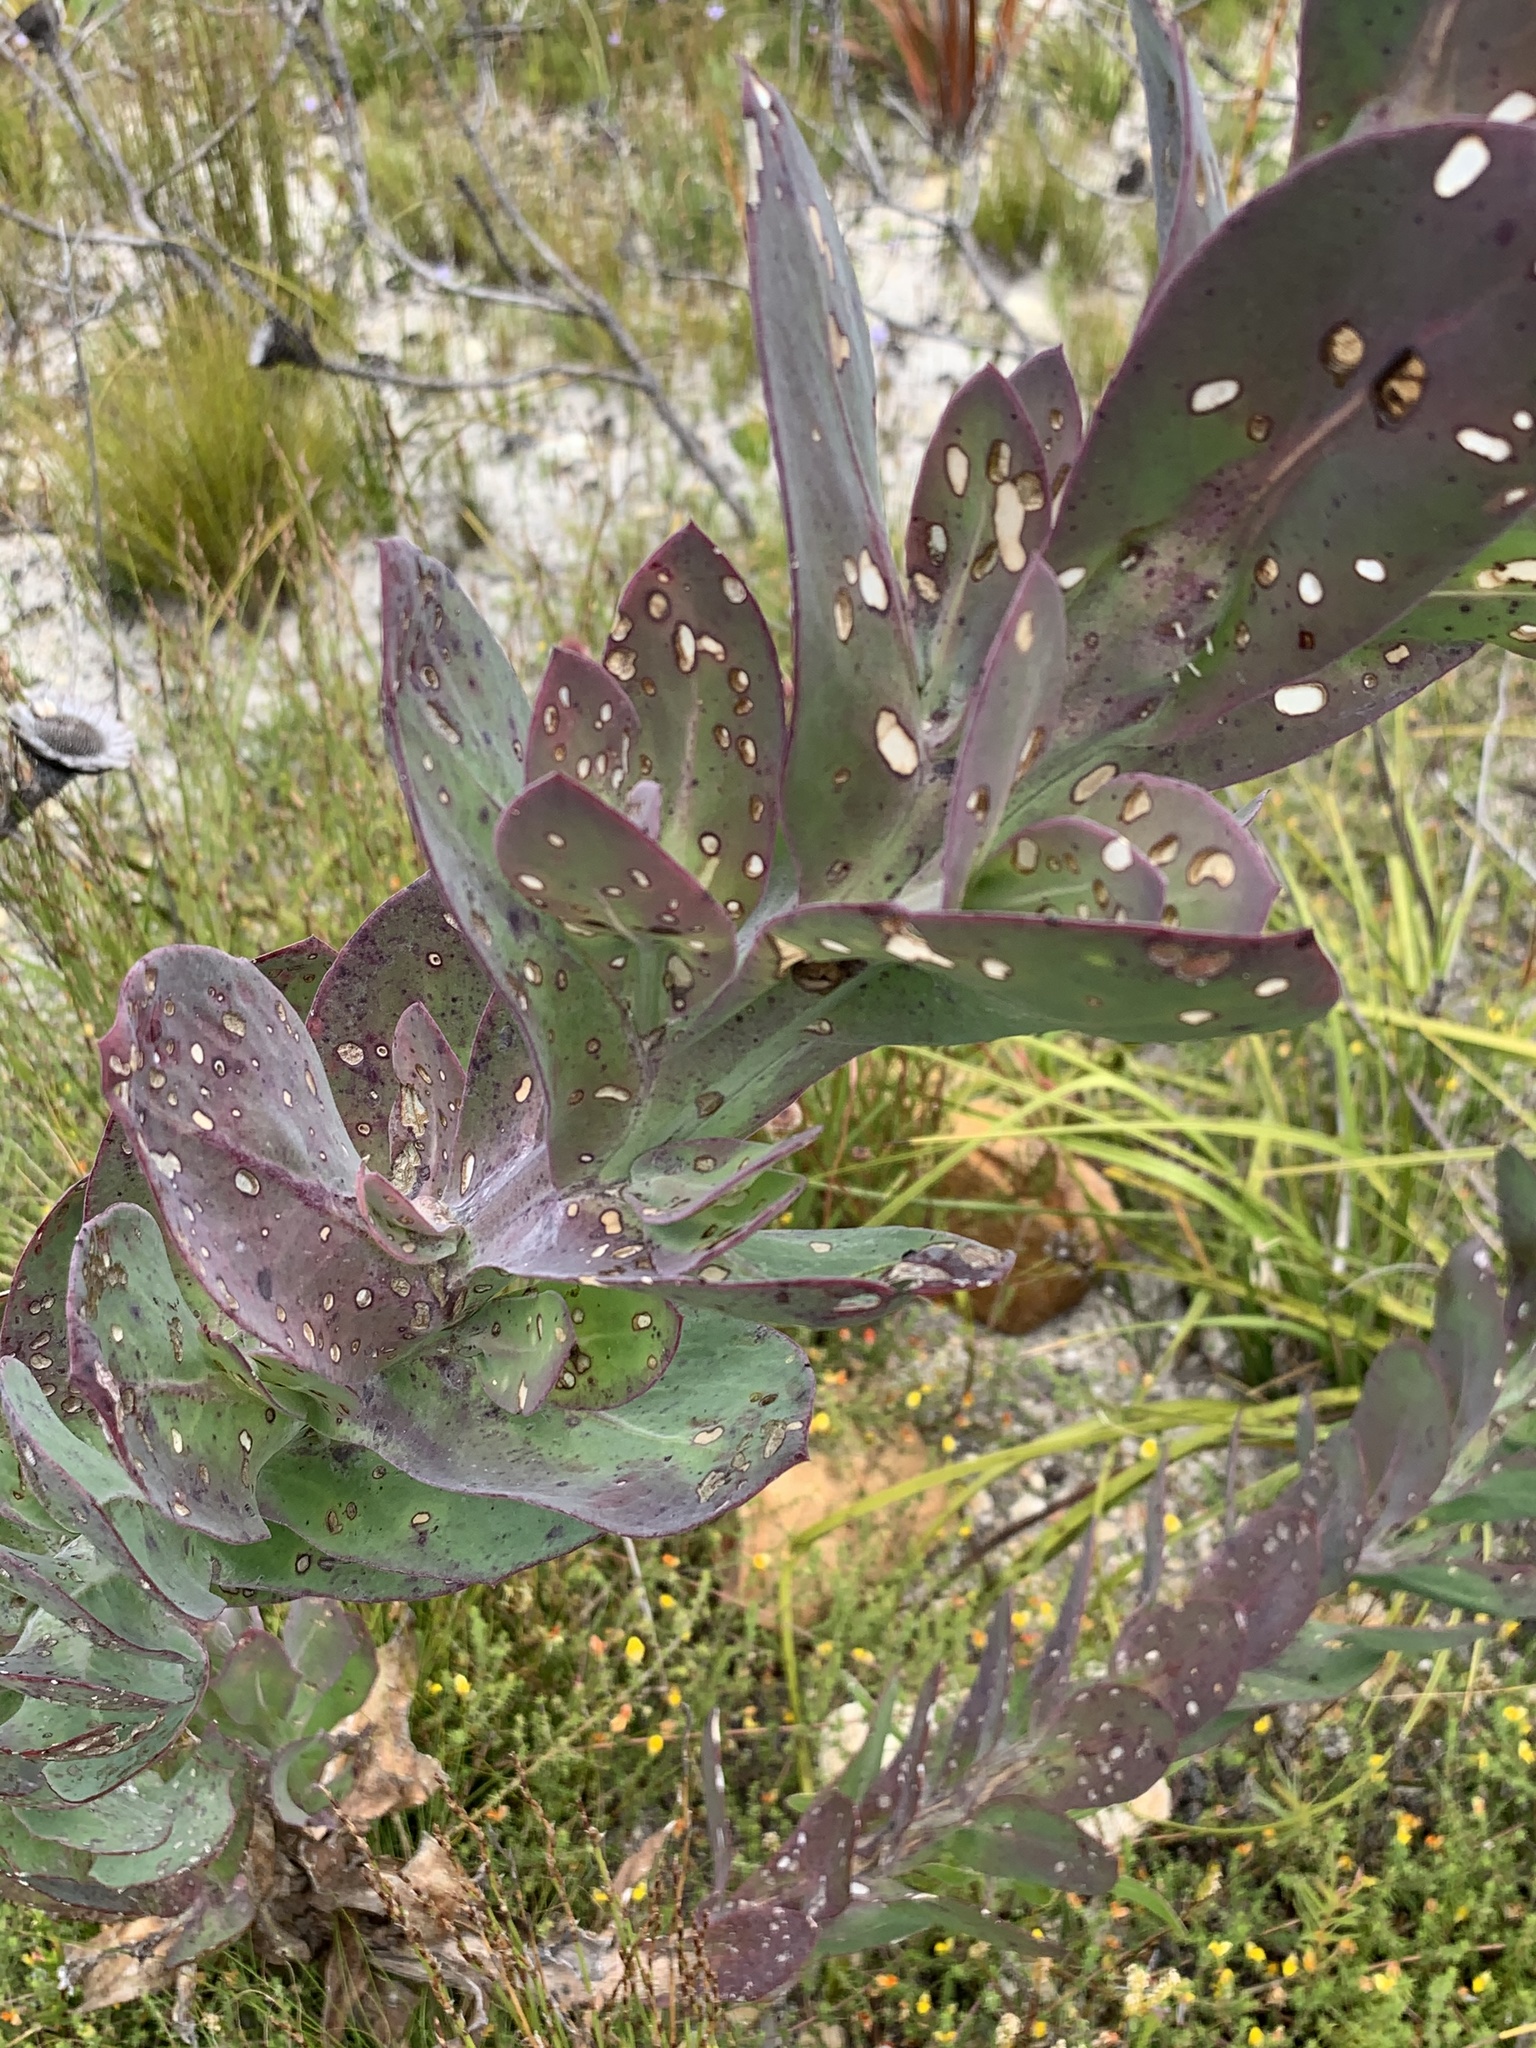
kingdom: Plantae
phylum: Tracheophyta
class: Magnoliopsida
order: Asterales
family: Asteraceae
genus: Othonna
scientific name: Othonna quinquedentata
